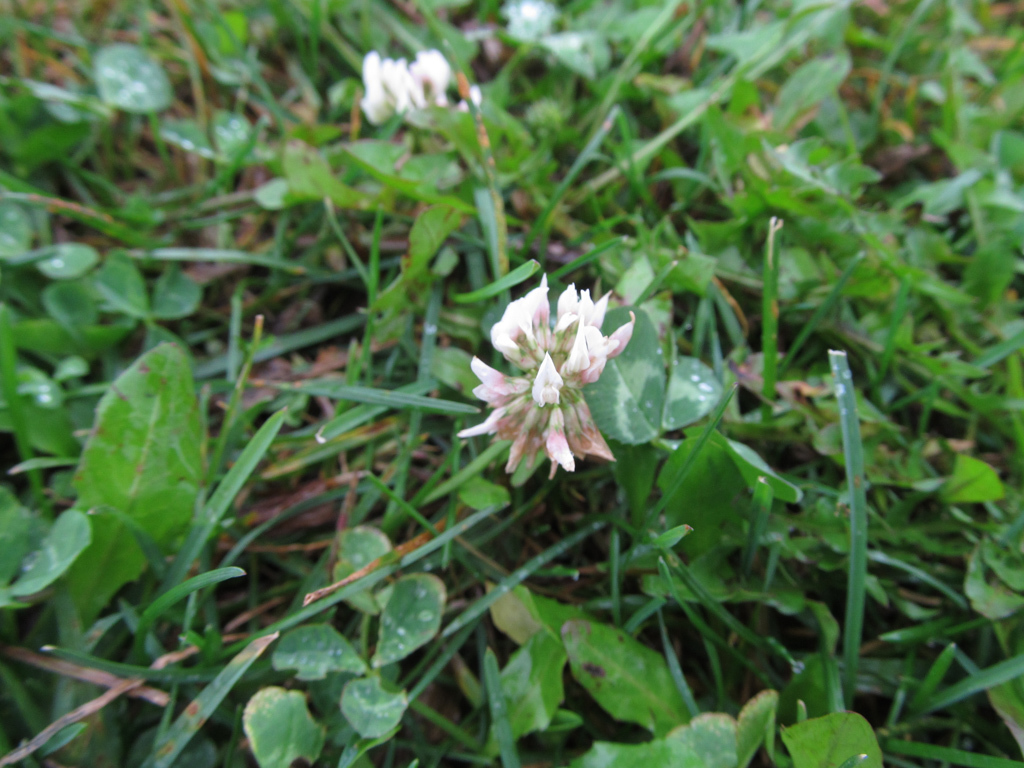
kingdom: Plantae
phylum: Tracheophyta
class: Magnoliopsida
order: Fabales
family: Fabaceae
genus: Trifolium
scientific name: Trifolium repens
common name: White clover
